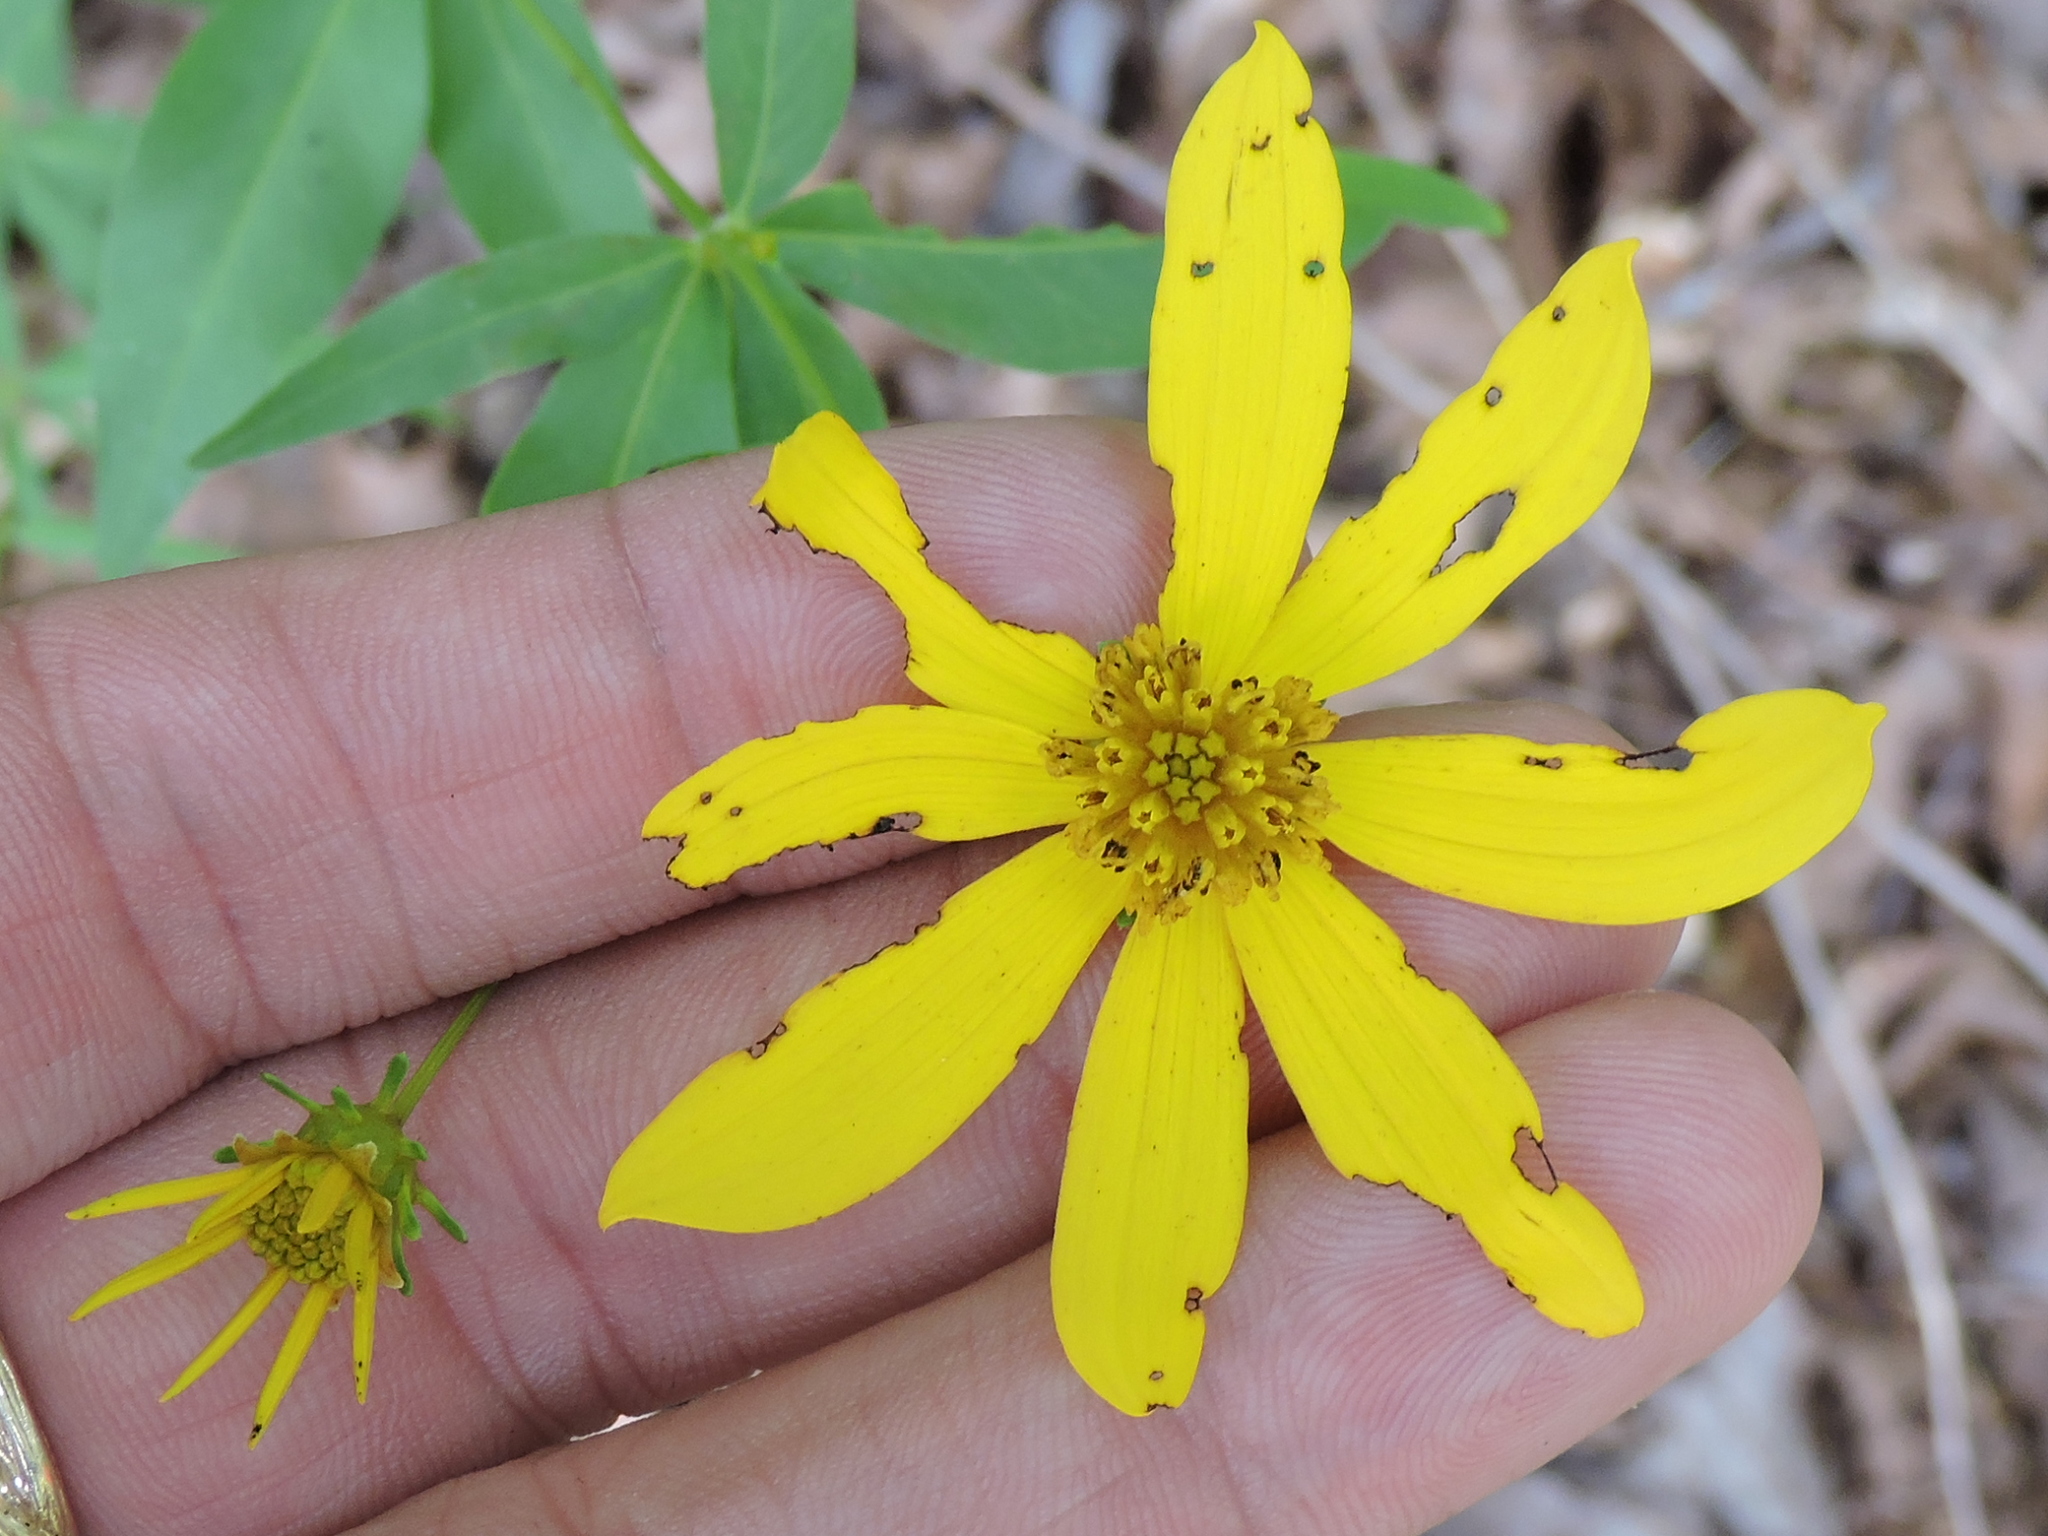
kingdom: Plantae
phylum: Tracheophyta
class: Magnoliopsida
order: Asterales
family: Asteraceae
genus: Coreopsis
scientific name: Coreopsis major
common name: Forest tickseed
